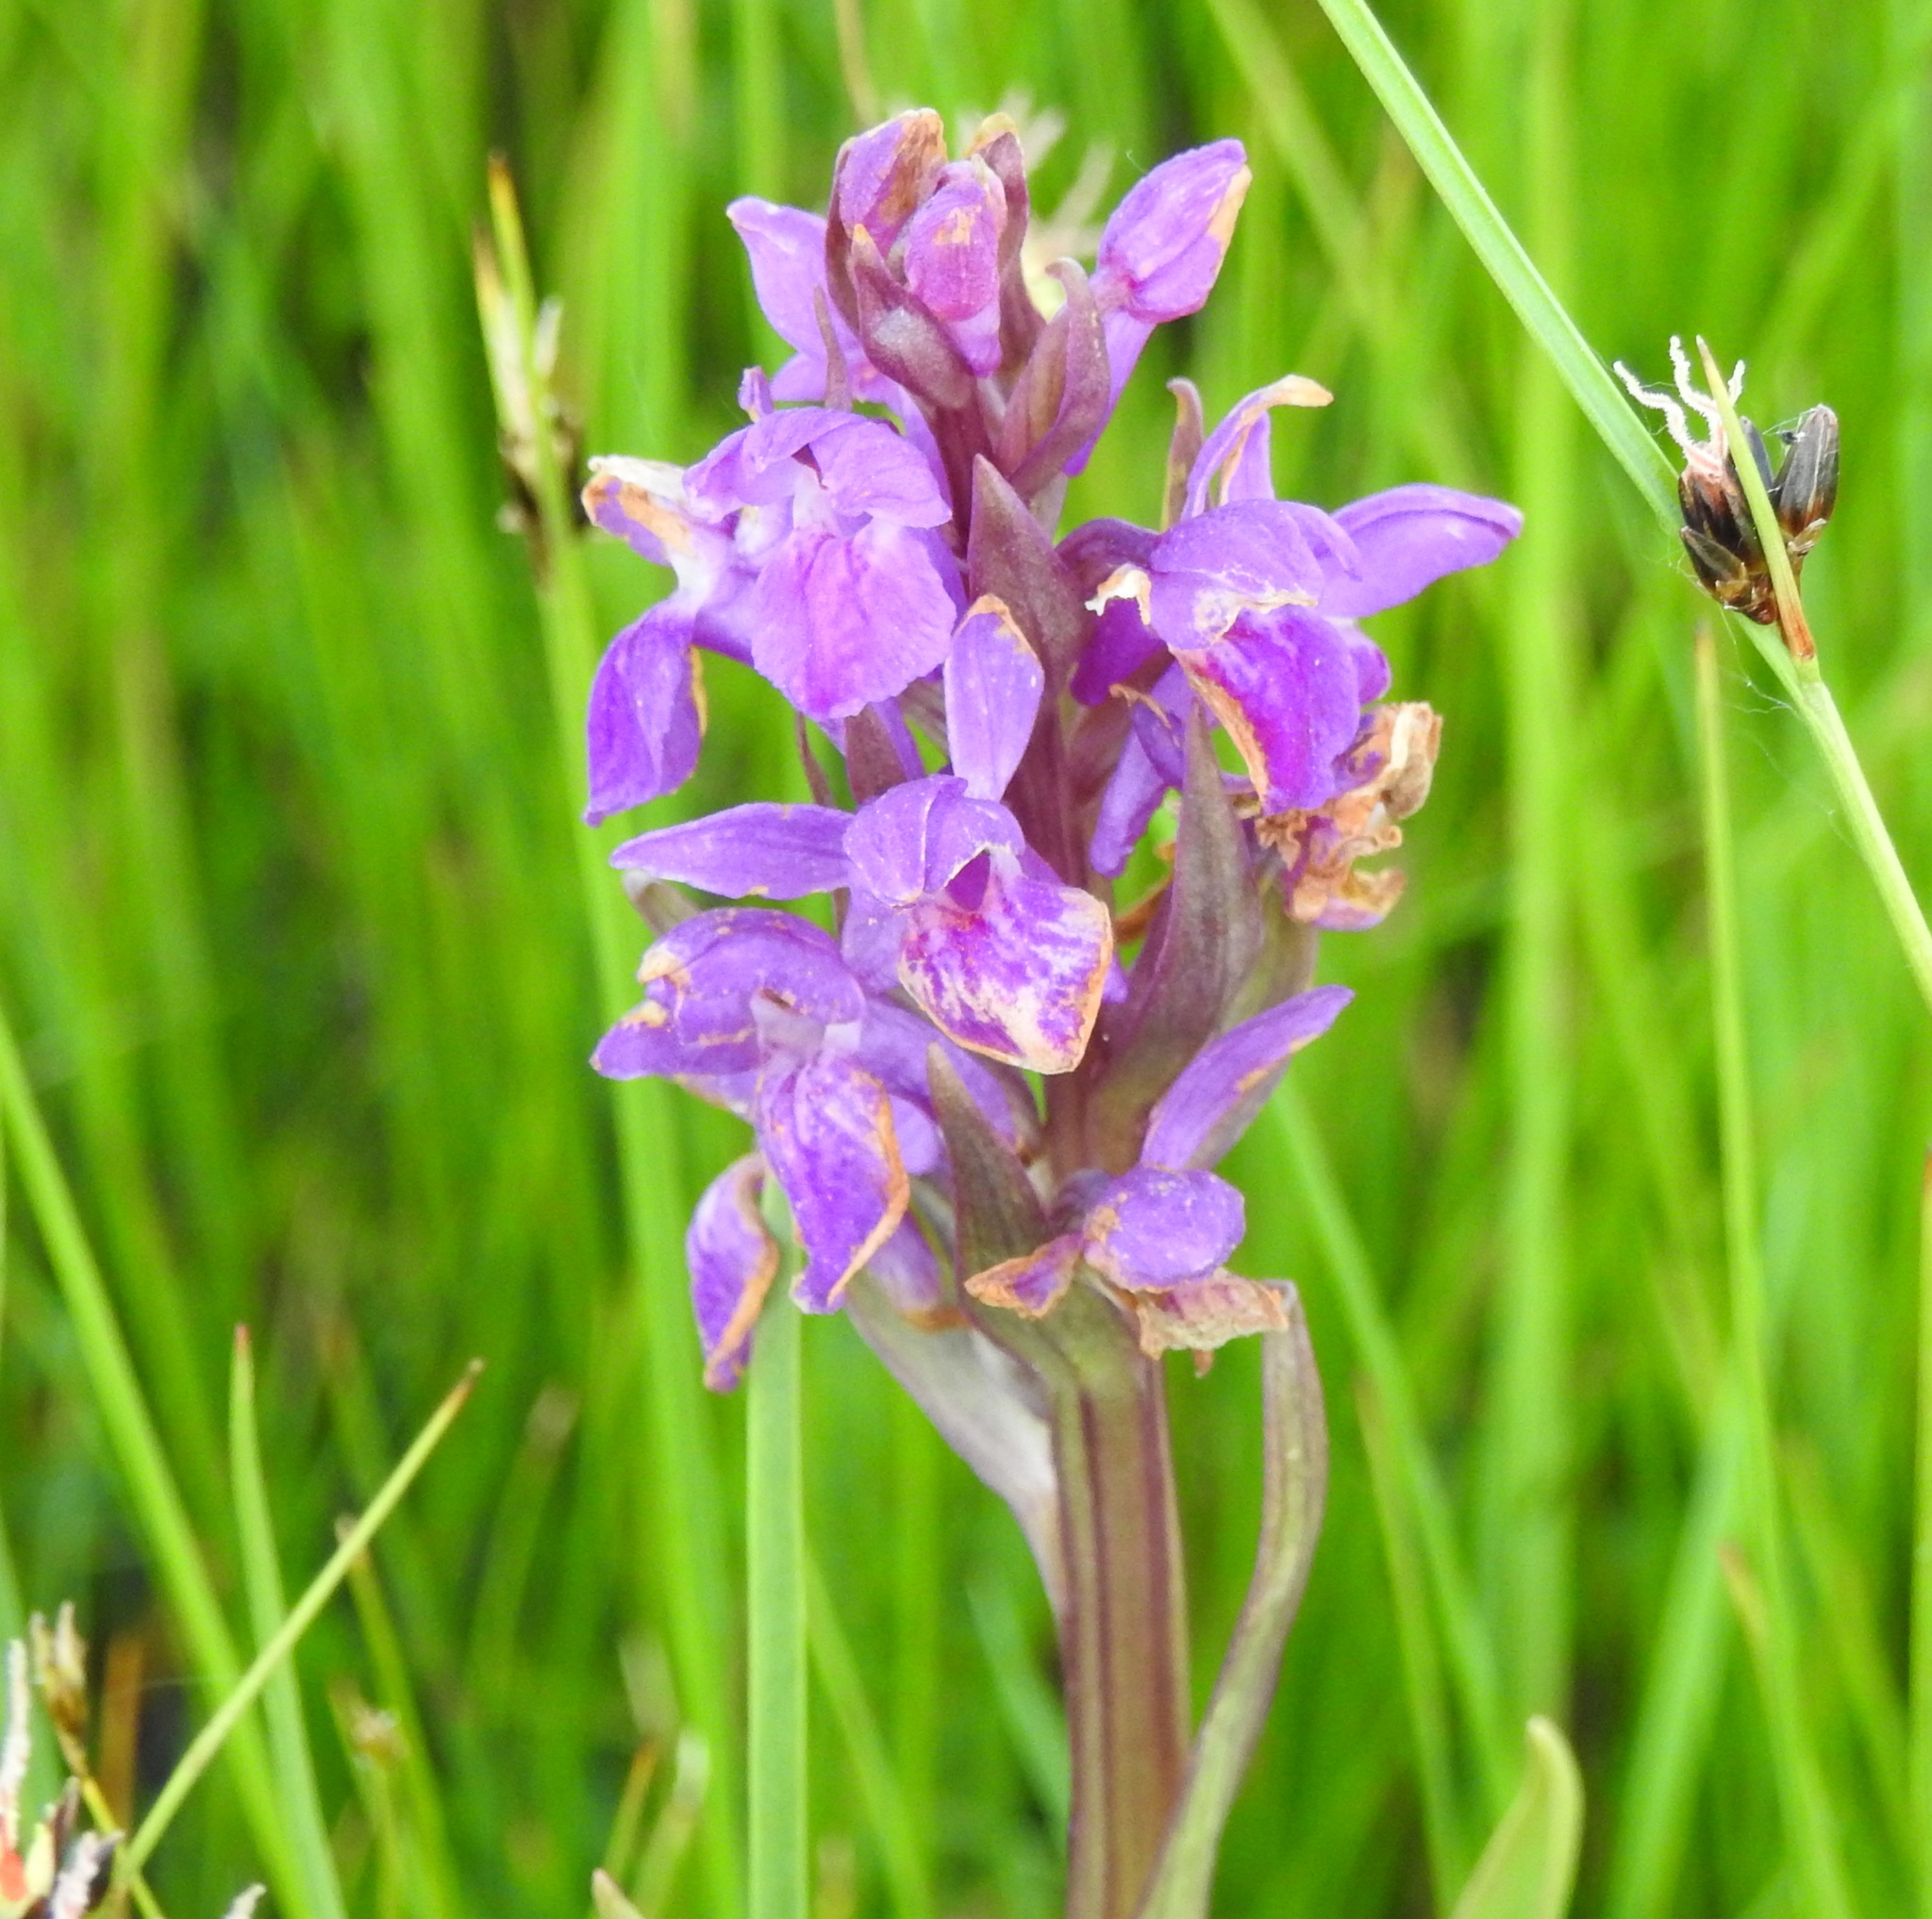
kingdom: Plantae
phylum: Tracheophyta
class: Liliopsida
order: Asparagales
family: Orchidaceae
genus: Dactylorhiza
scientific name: Dactylorhiza salina
